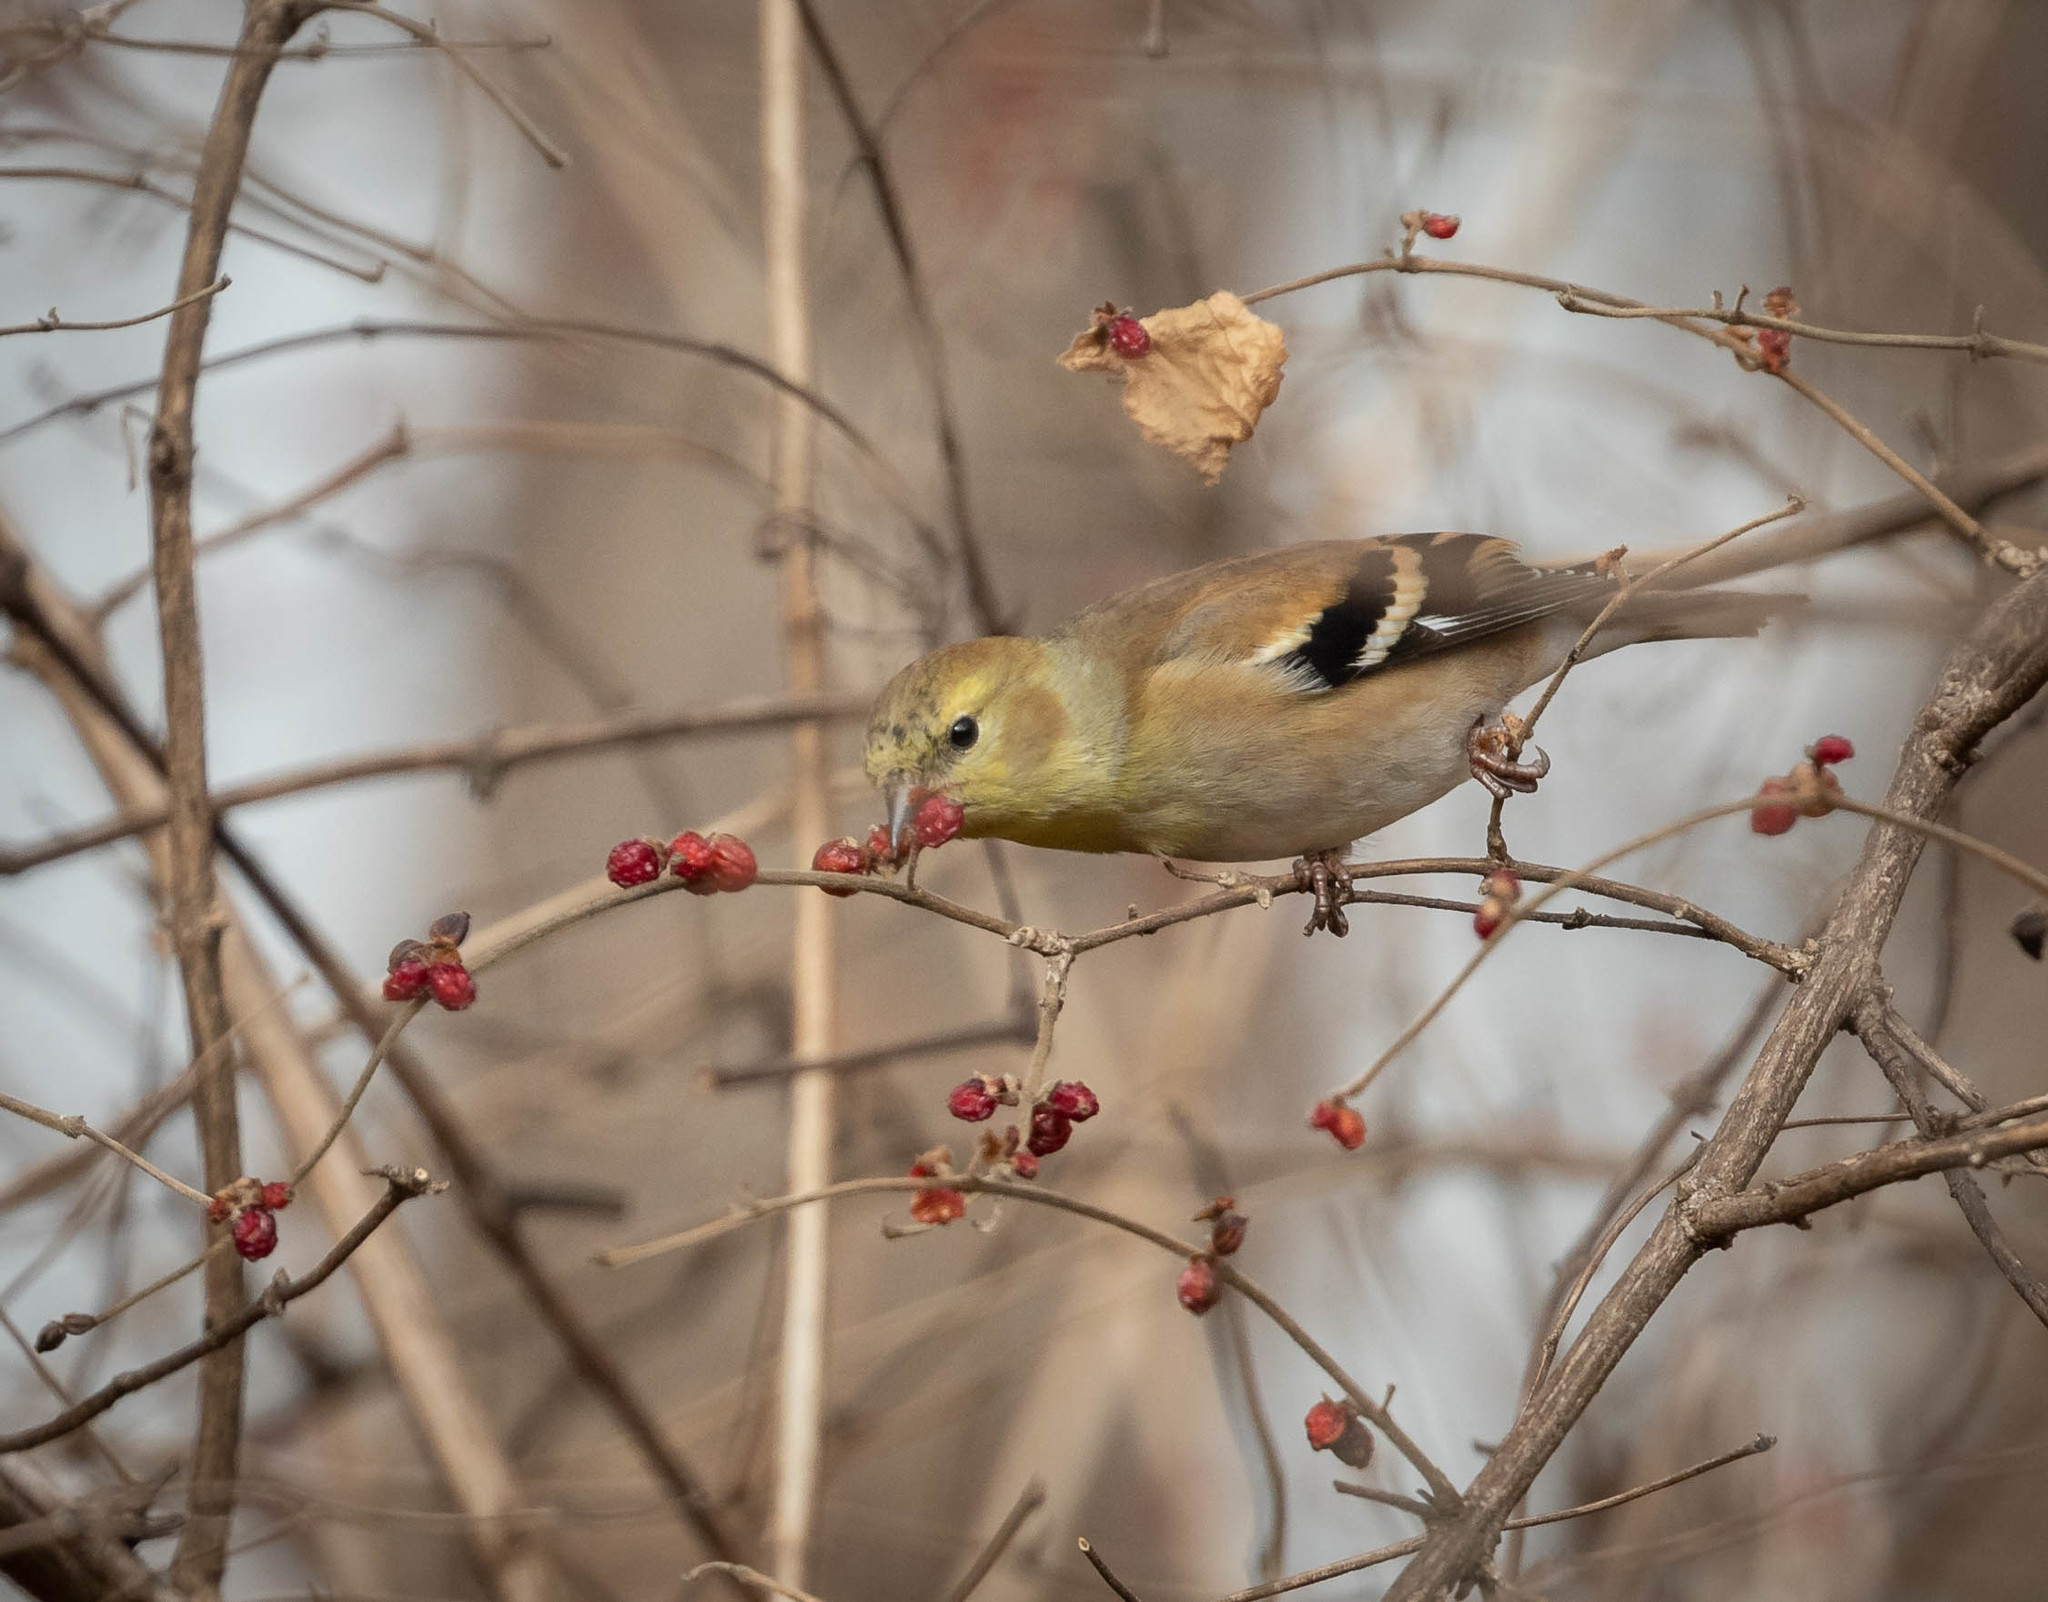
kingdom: Animalia
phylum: Chordata
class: Aves
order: Passeriformes
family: Fringillidae
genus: Spinus
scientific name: Spinus tristis
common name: American goldfinch
